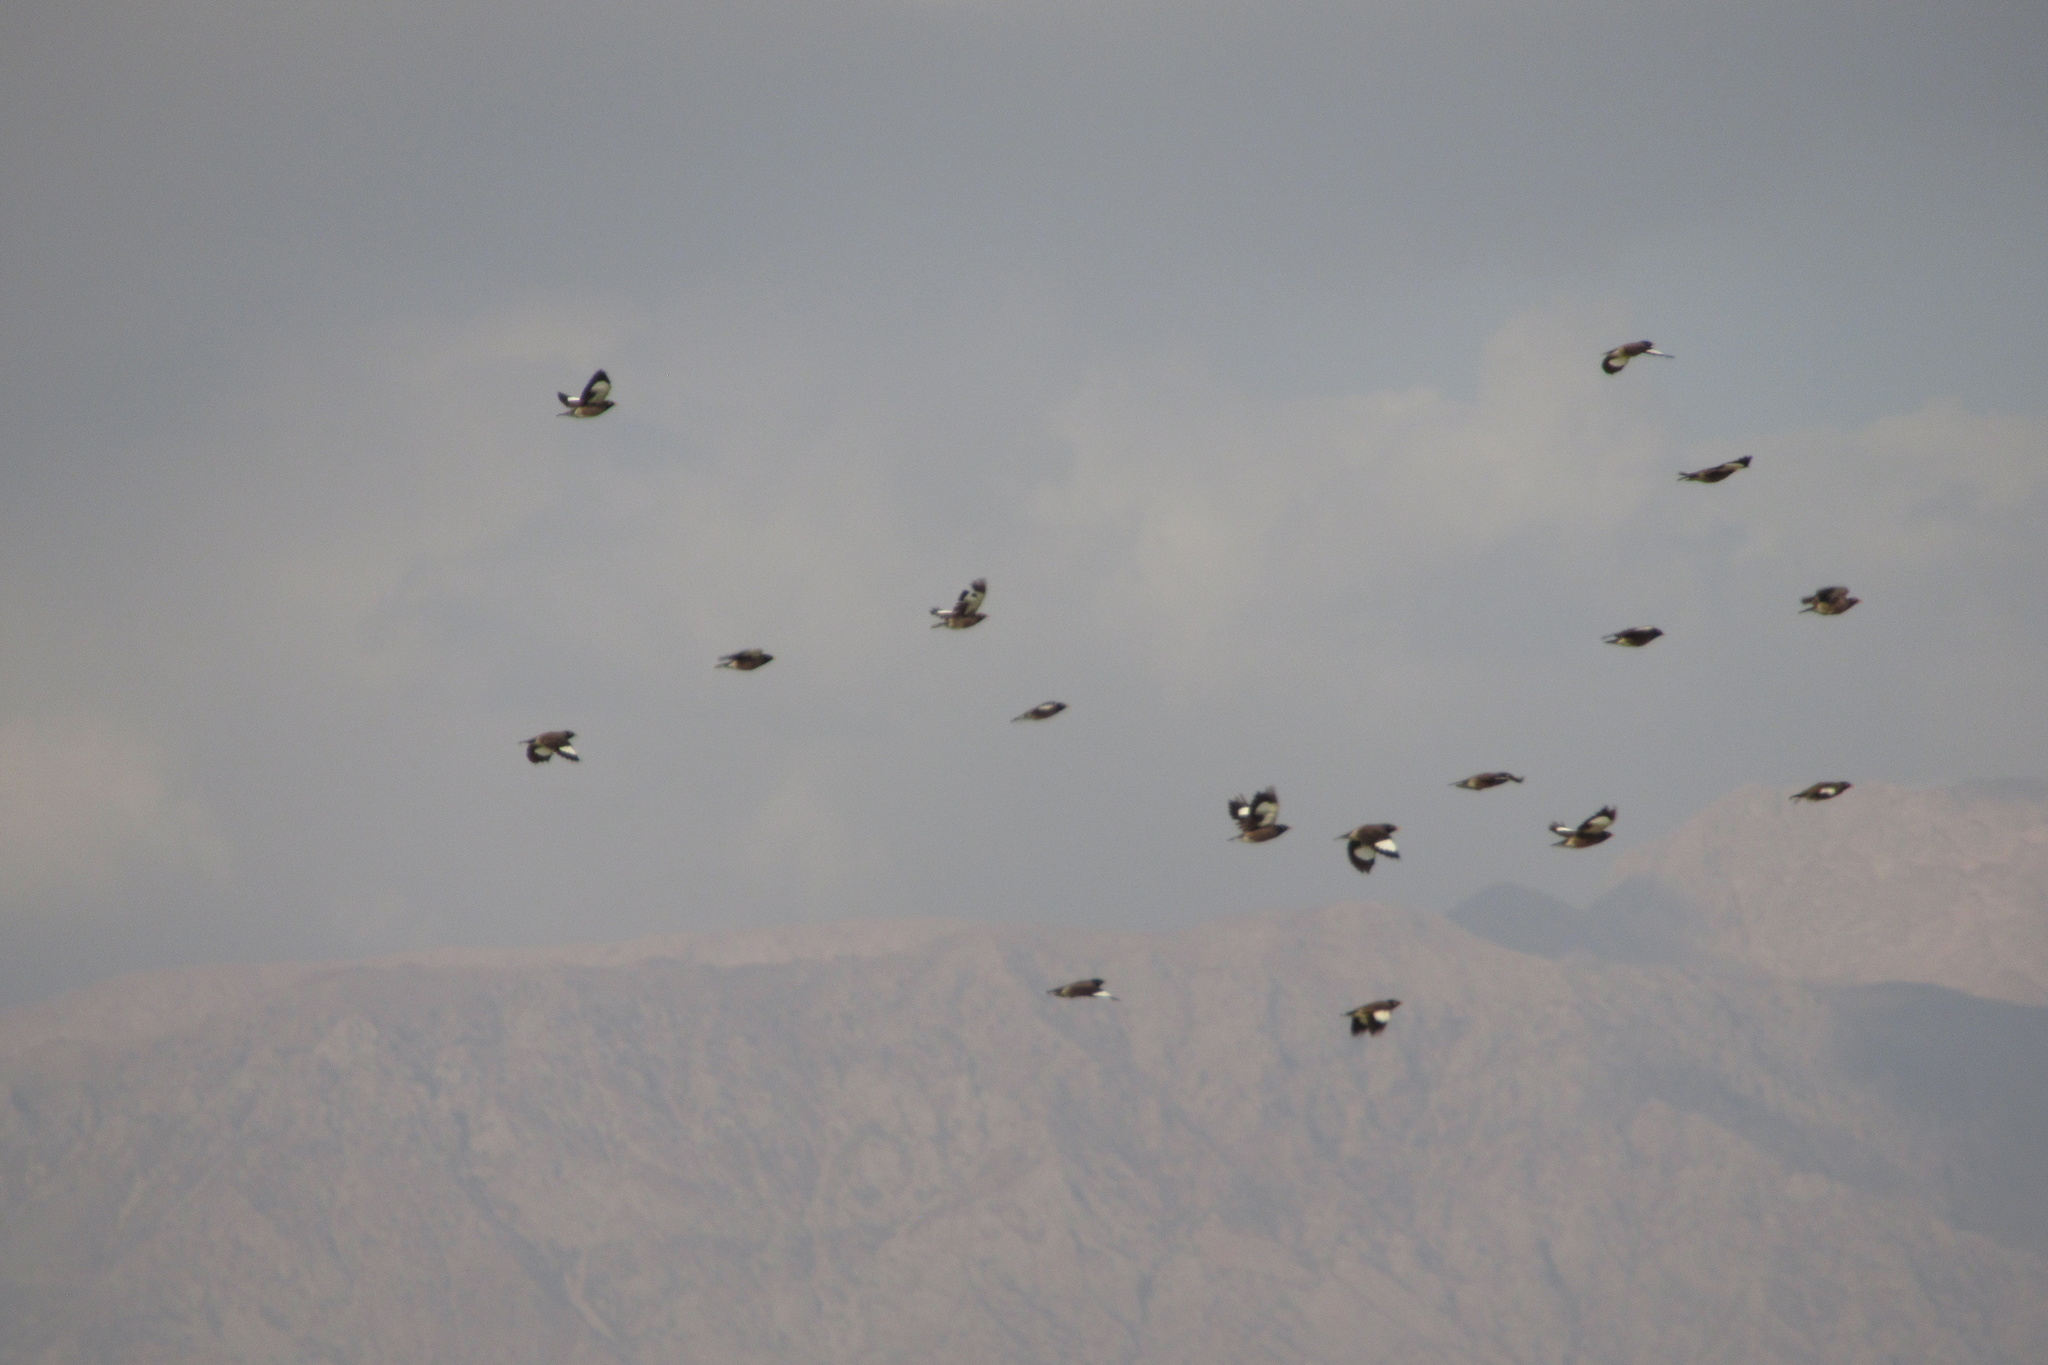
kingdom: Animalia
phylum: Chordata
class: Aves
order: Passeriformes
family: Sturnidae
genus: Acridotheres
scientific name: Acridotheres tristis
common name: Common myna
